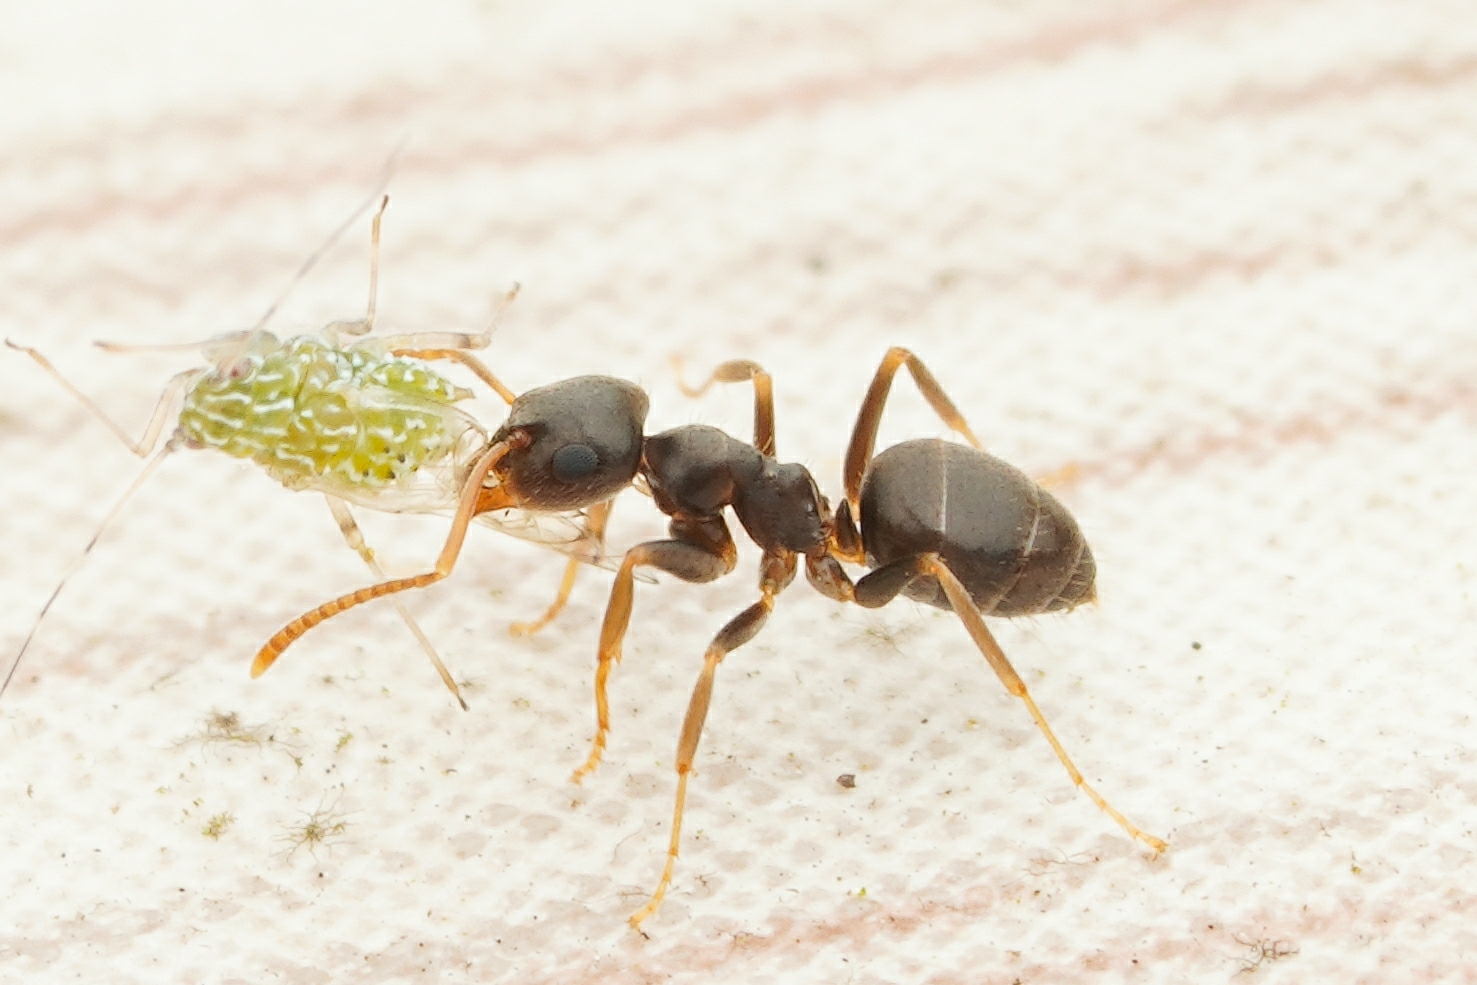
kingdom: Animalia
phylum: Arthropoda
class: Insecta
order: Hymenoptera
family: Formicidae
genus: Lasius
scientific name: Lasius
